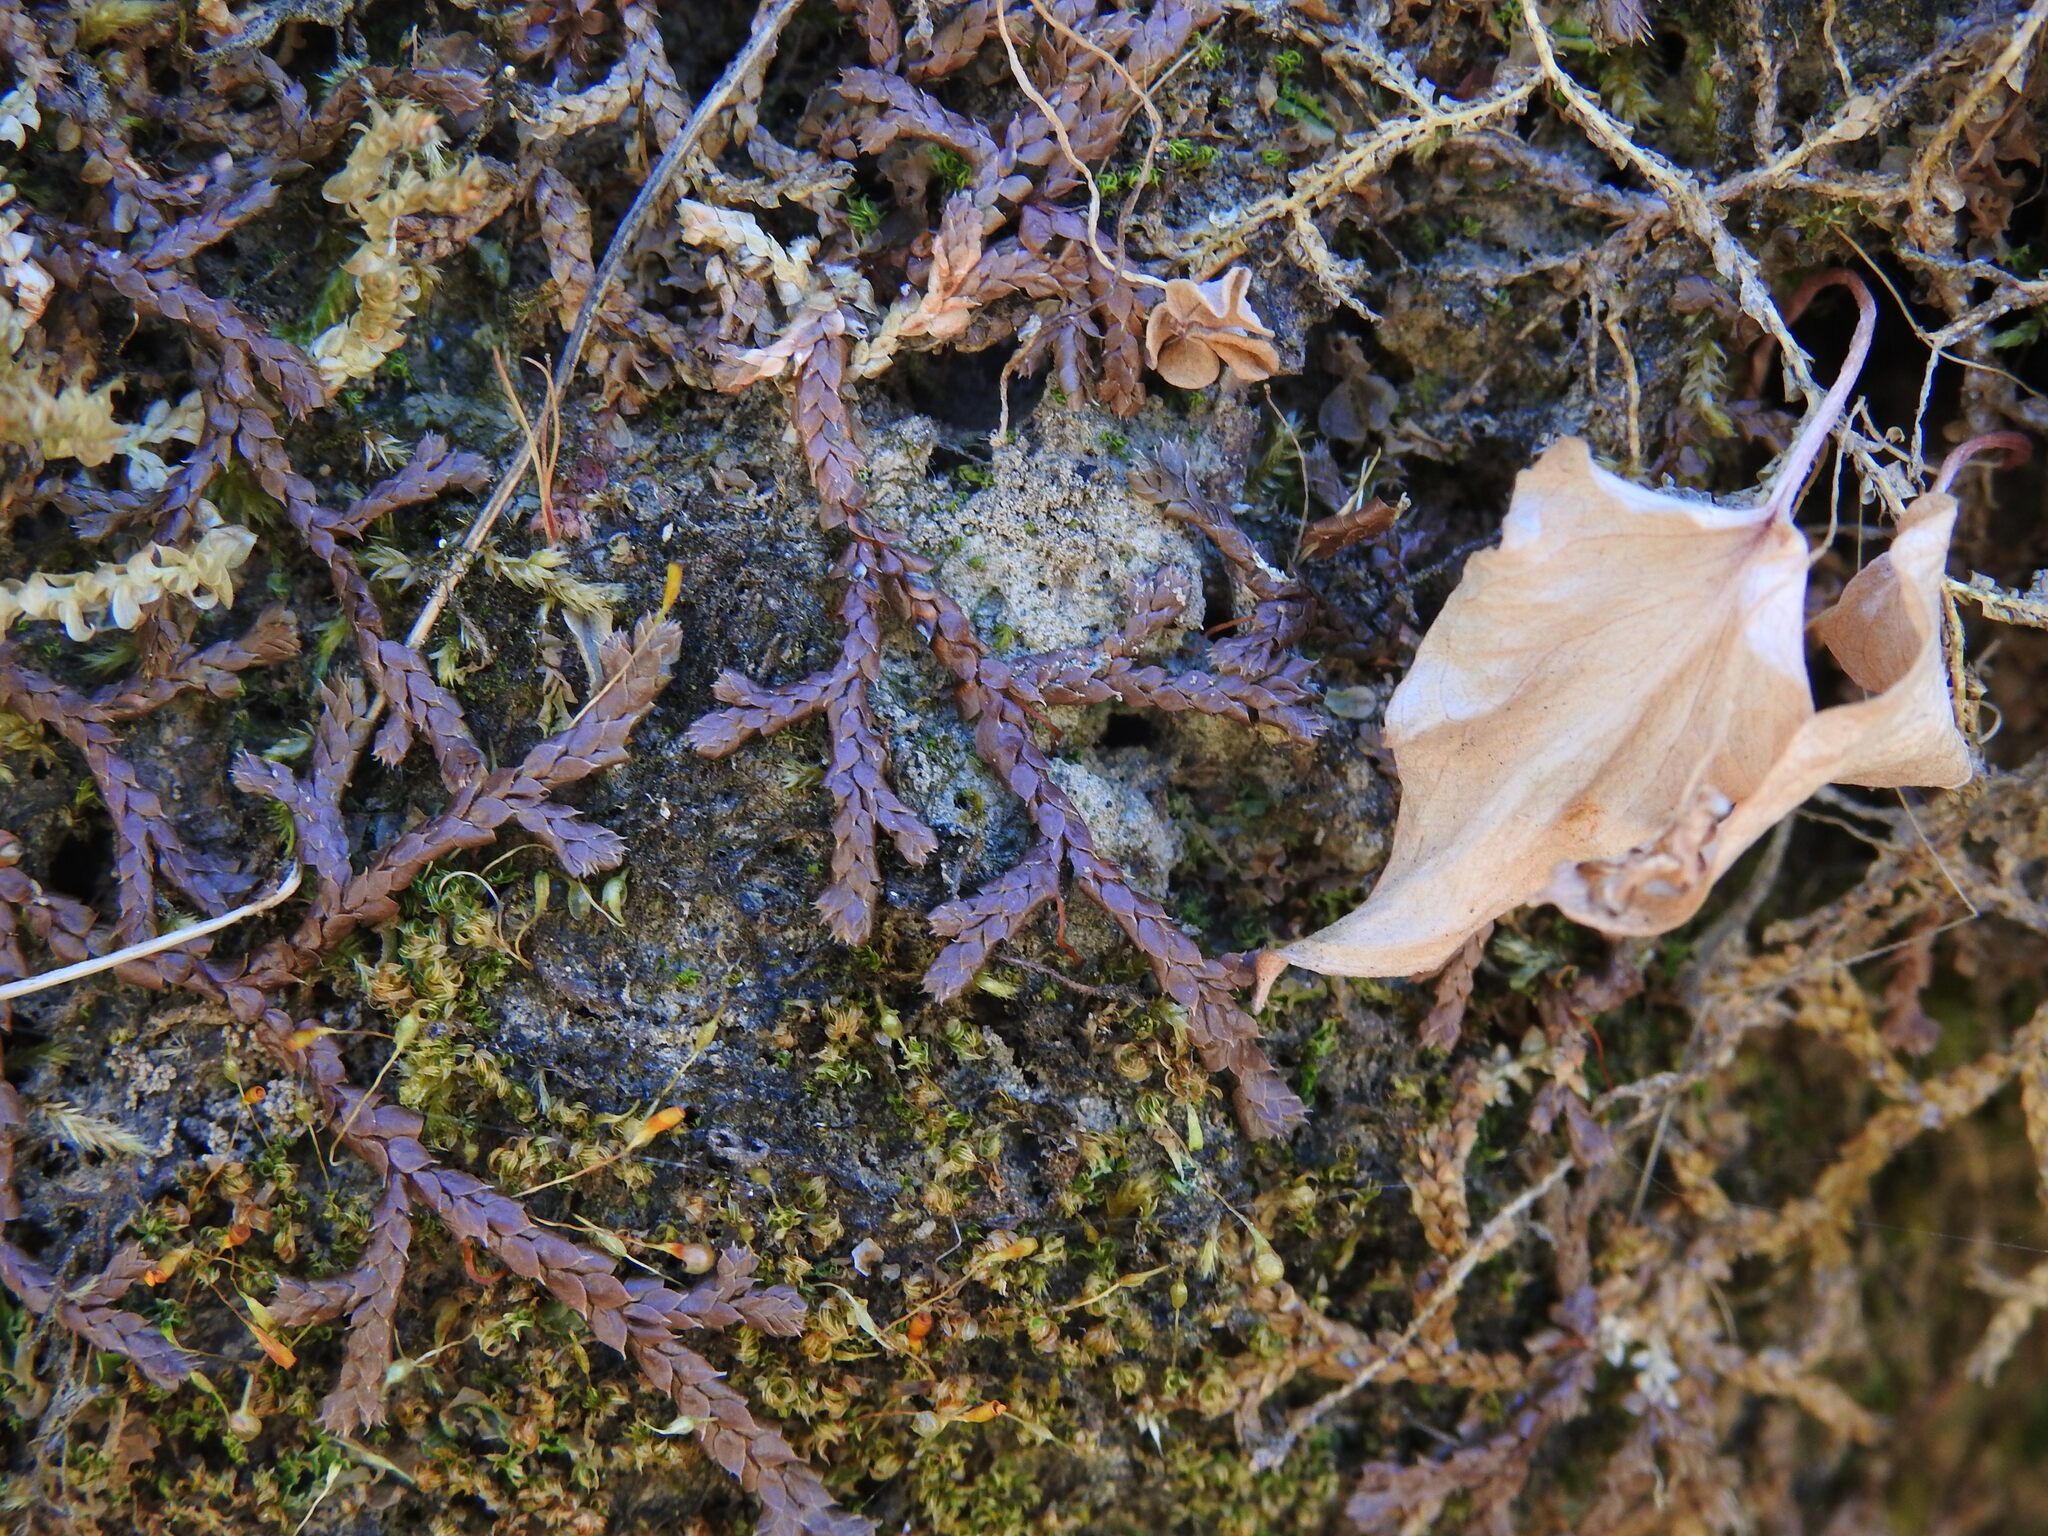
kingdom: Plantae
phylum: Tracheophyta
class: Lycopodiopsida
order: Selaginellales
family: Selaginellaceae
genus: Selaginella
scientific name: Selaginella denticulata
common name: Toothed-leaved clubmoss
